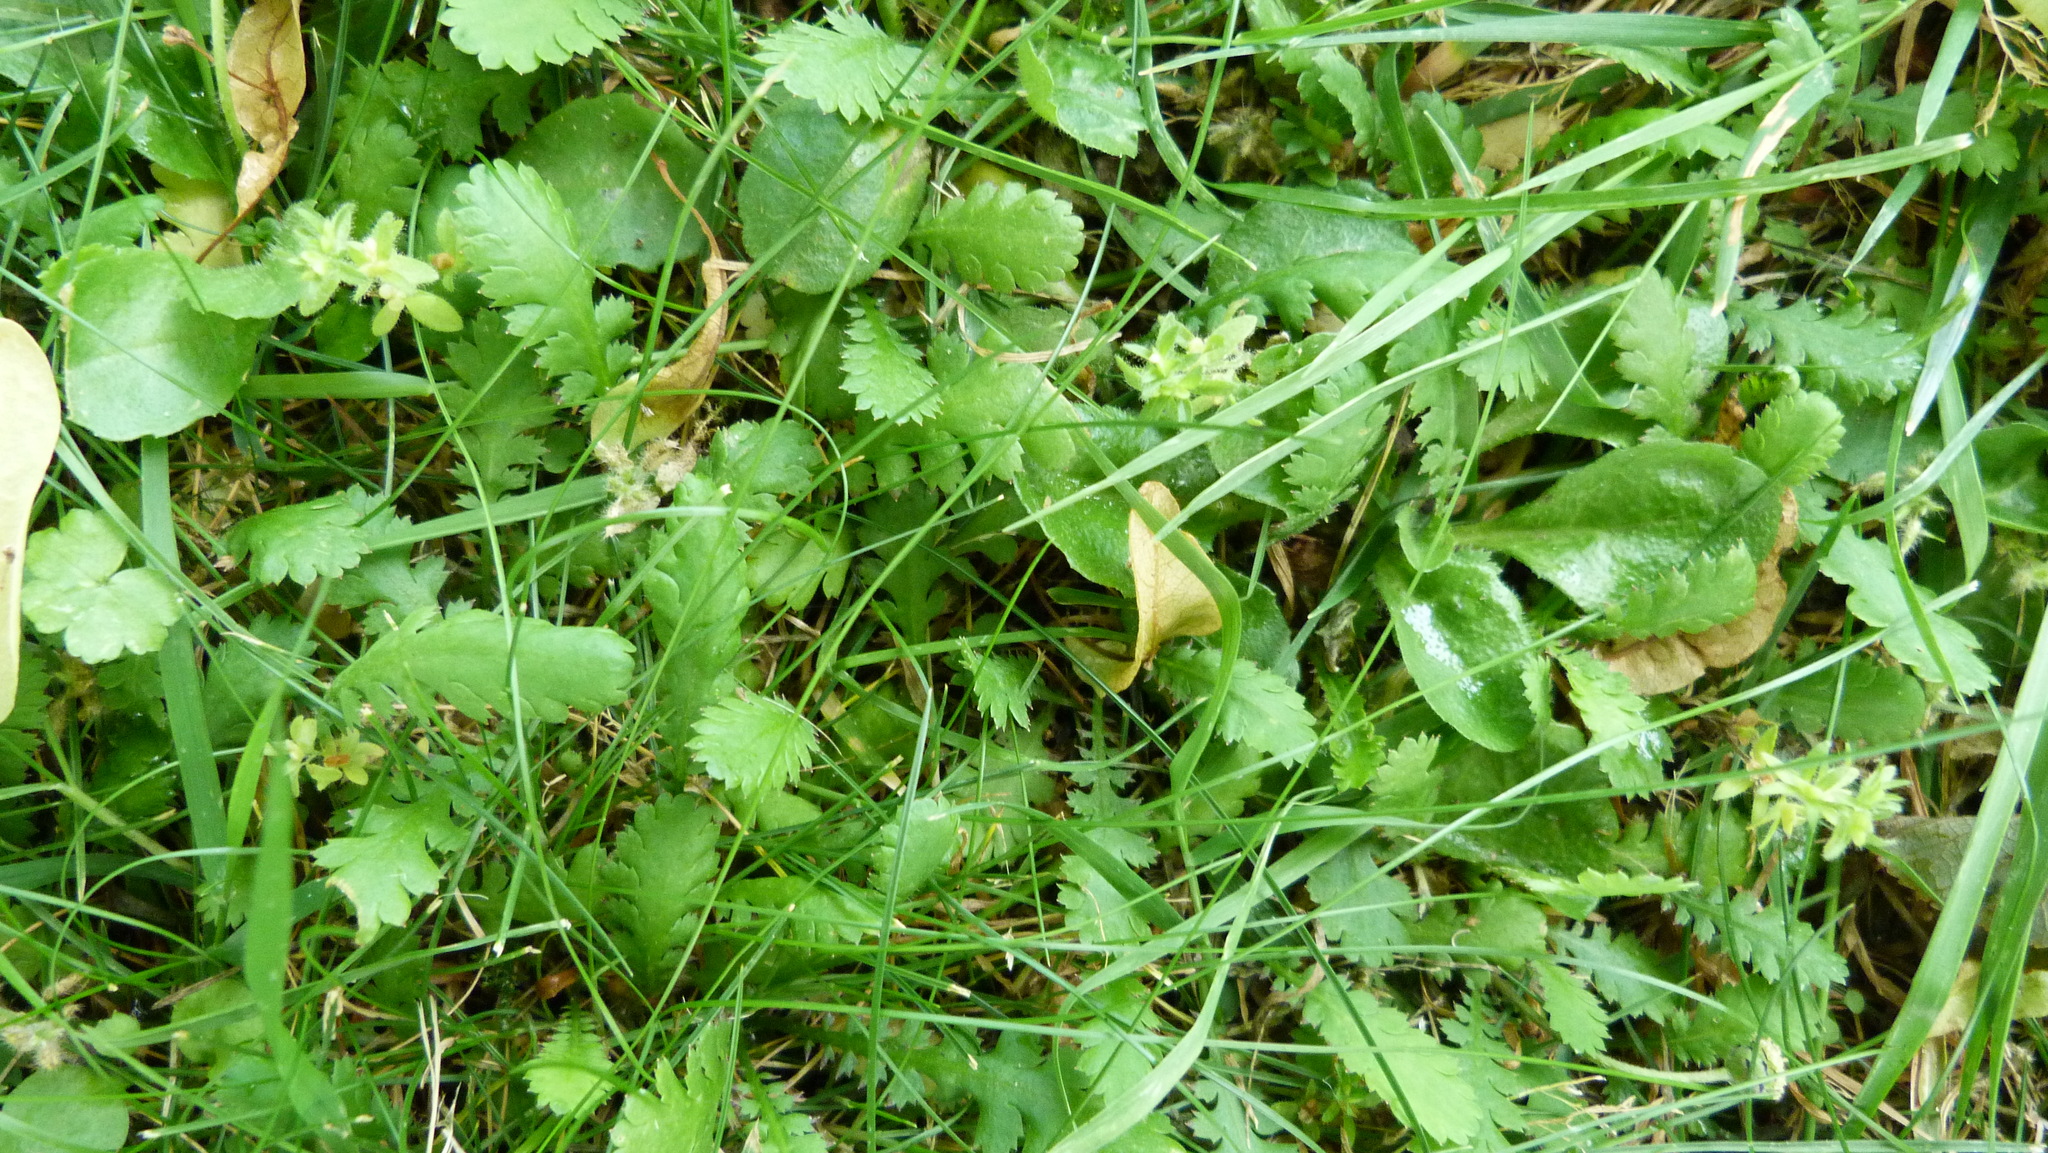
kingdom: Plantae
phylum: Tracheophyta
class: Magnoliopsida
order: Asterales
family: Asteraceae
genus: Leptinella
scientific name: Leptinella dioica
